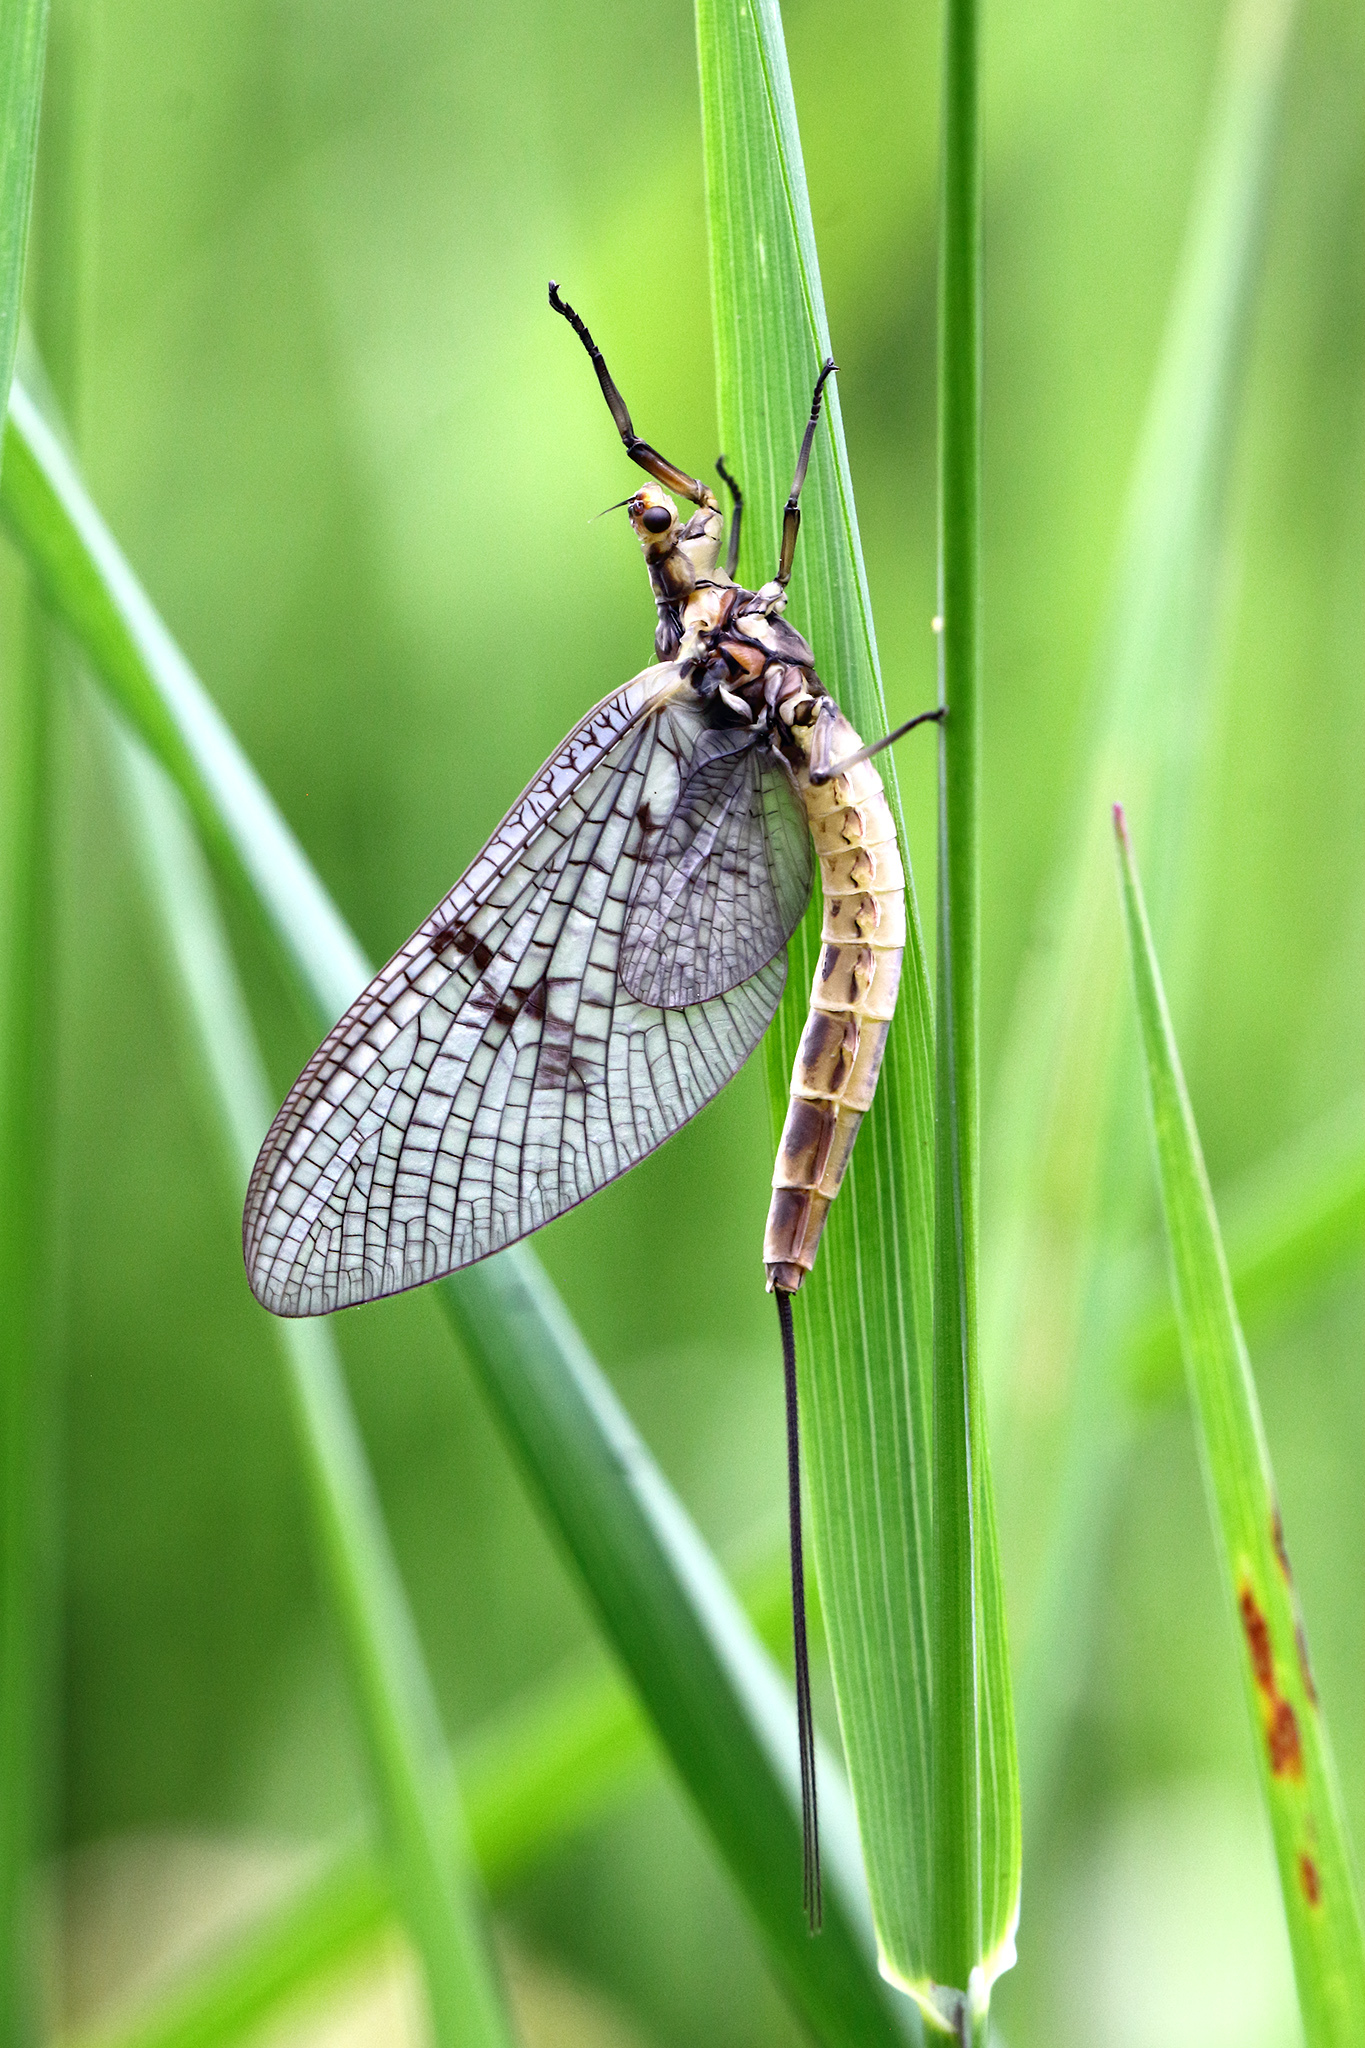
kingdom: Animalia
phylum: Arthropoda
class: Insecta
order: Ephemeroptera
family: Ephemeridae
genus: Ephemera
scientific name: Ephemera danica
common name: Green dun
